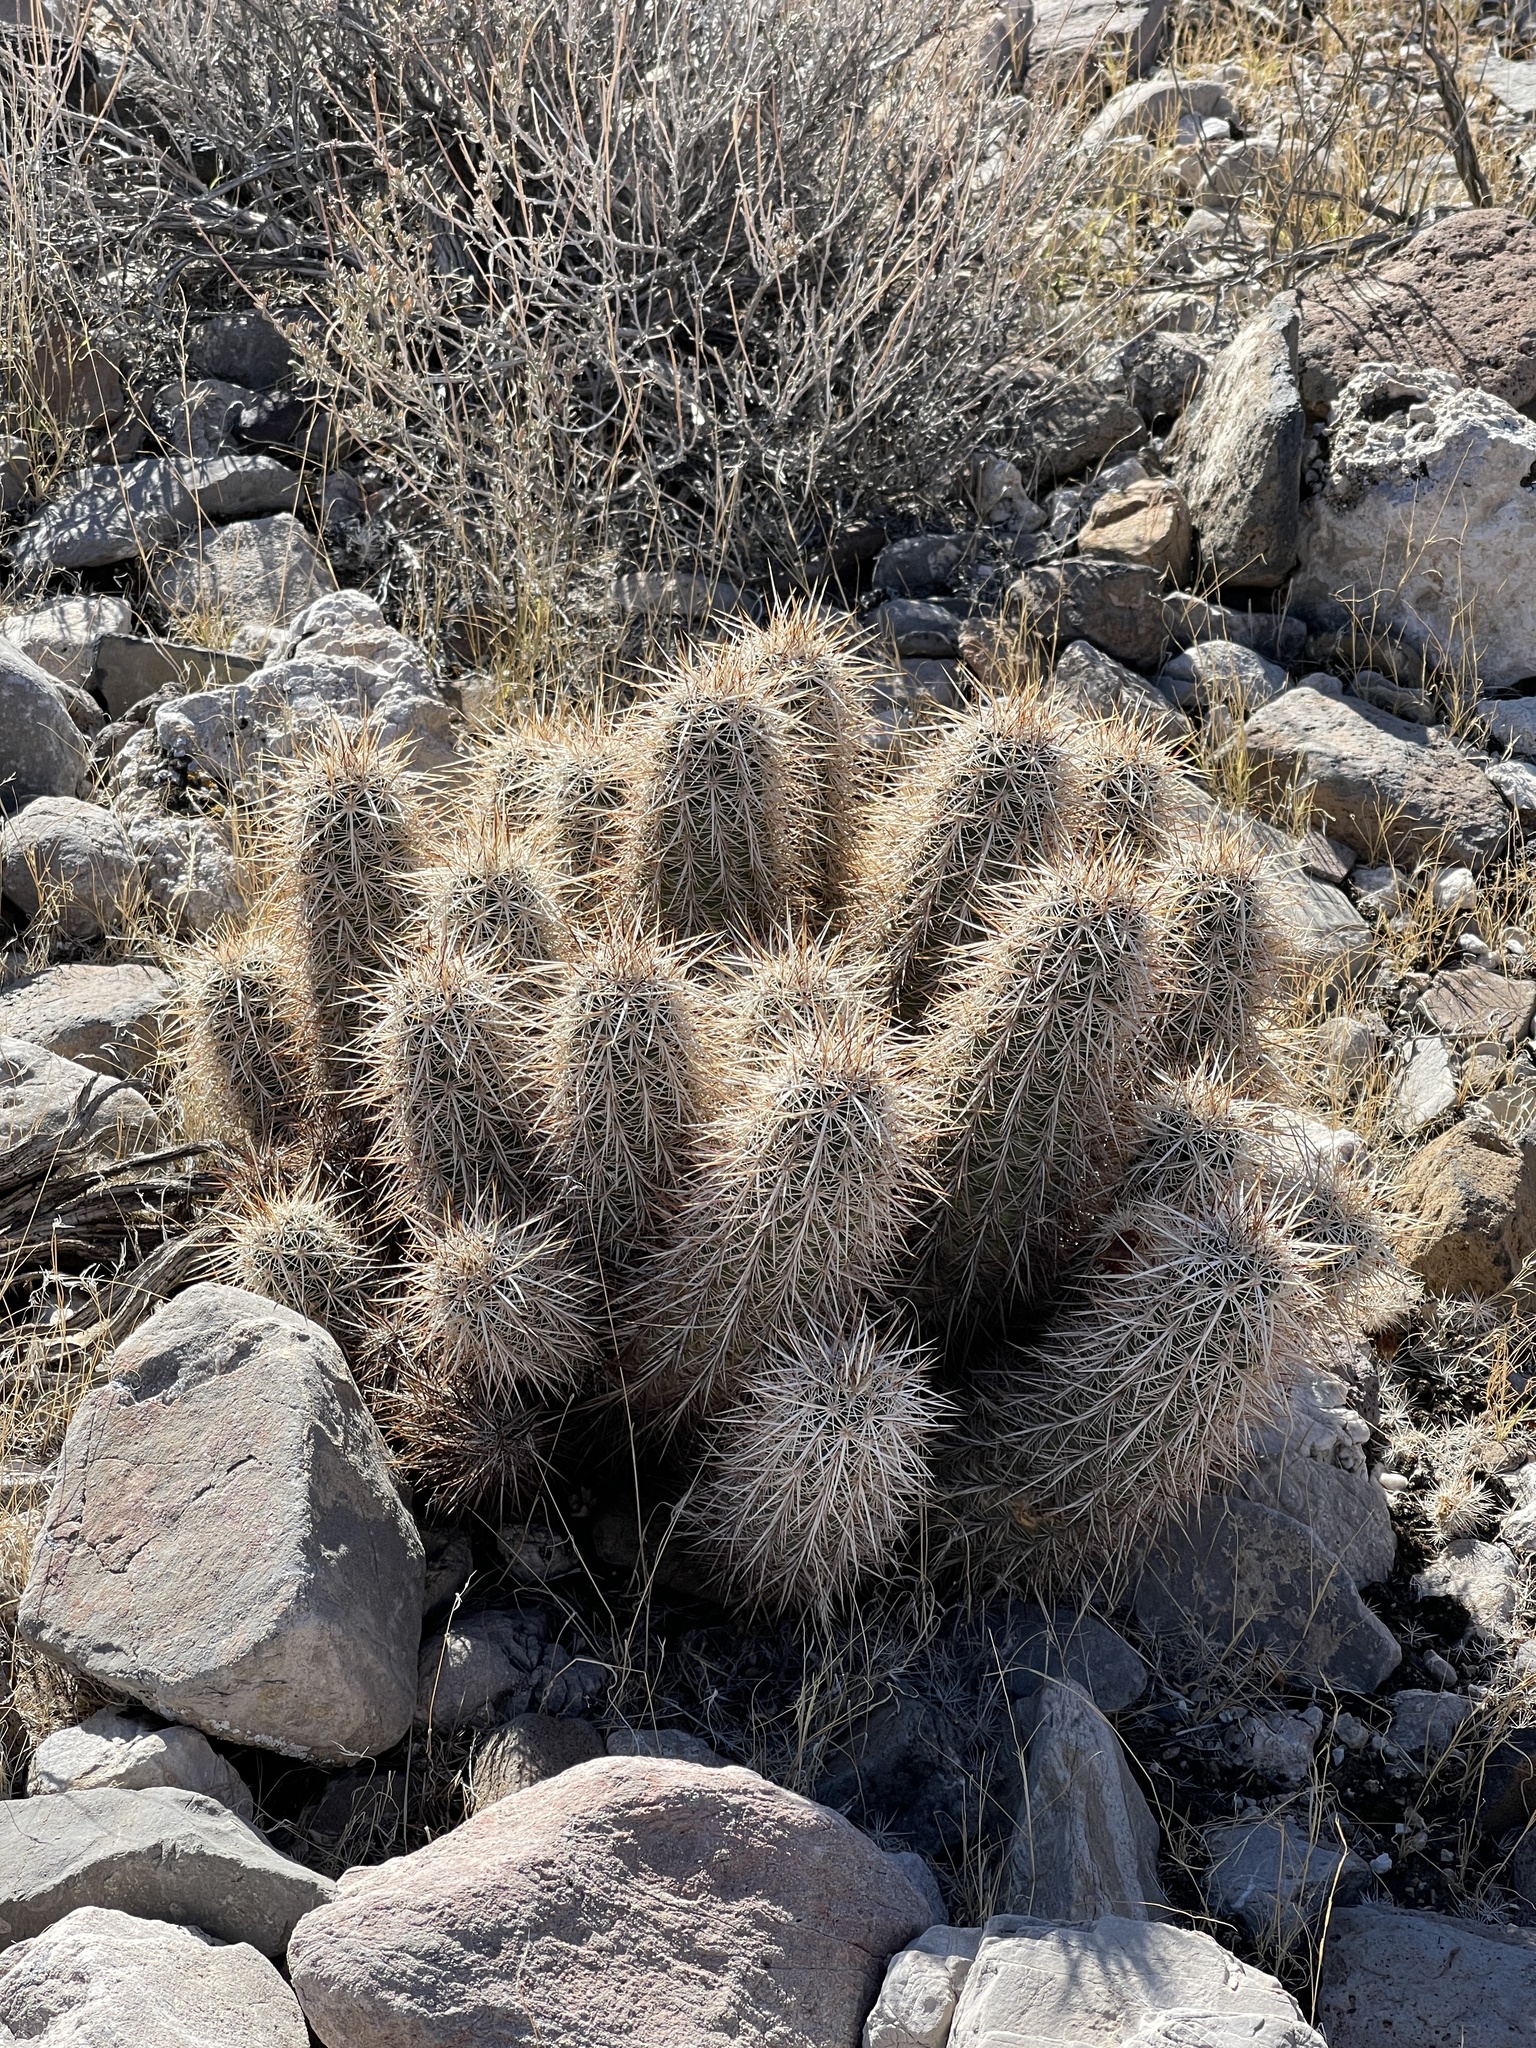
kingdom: Plantae
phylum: Tracheophyta
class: Magnoliopsida
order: Caryophyllales
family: Cactaceae
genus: Echinocereus
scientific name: Echinocereus engelmannii
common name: Engelmann's hedgehog cactus
